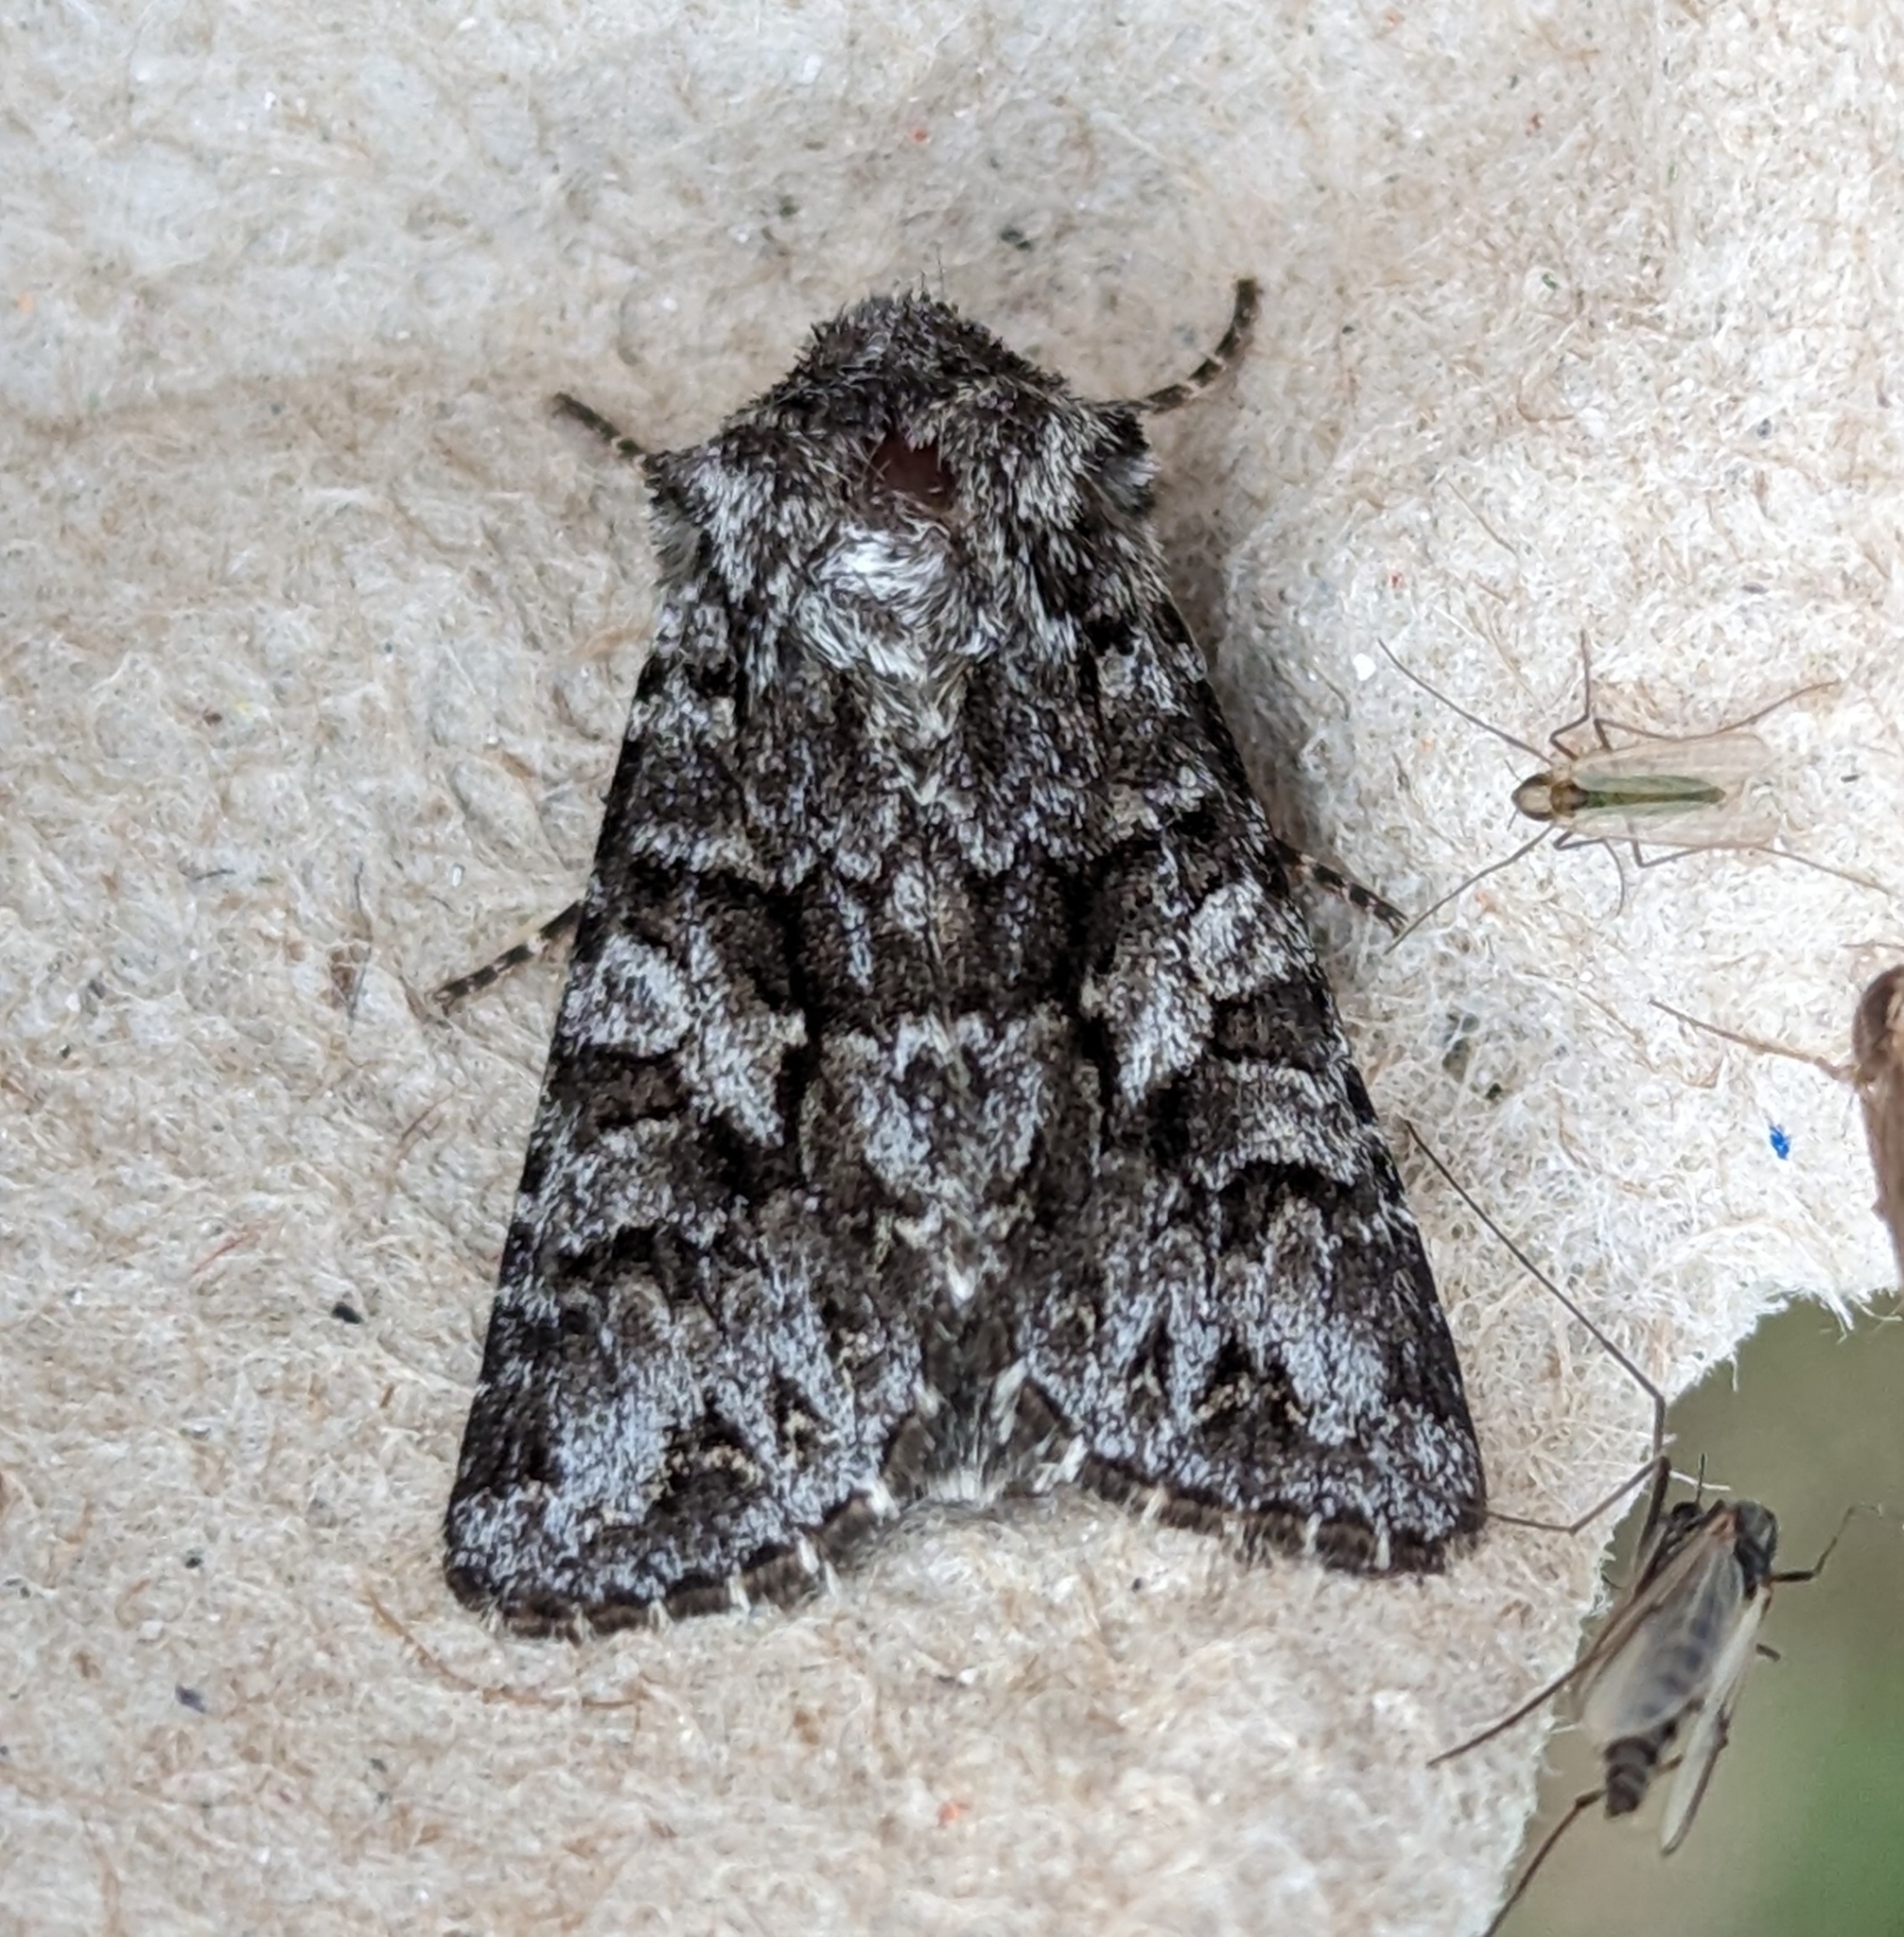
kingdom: Animalia
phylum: Arthropoda
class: Insecta
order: Lepidoptera
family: Noctuidae
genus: Hada
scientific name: Hada sutrina
